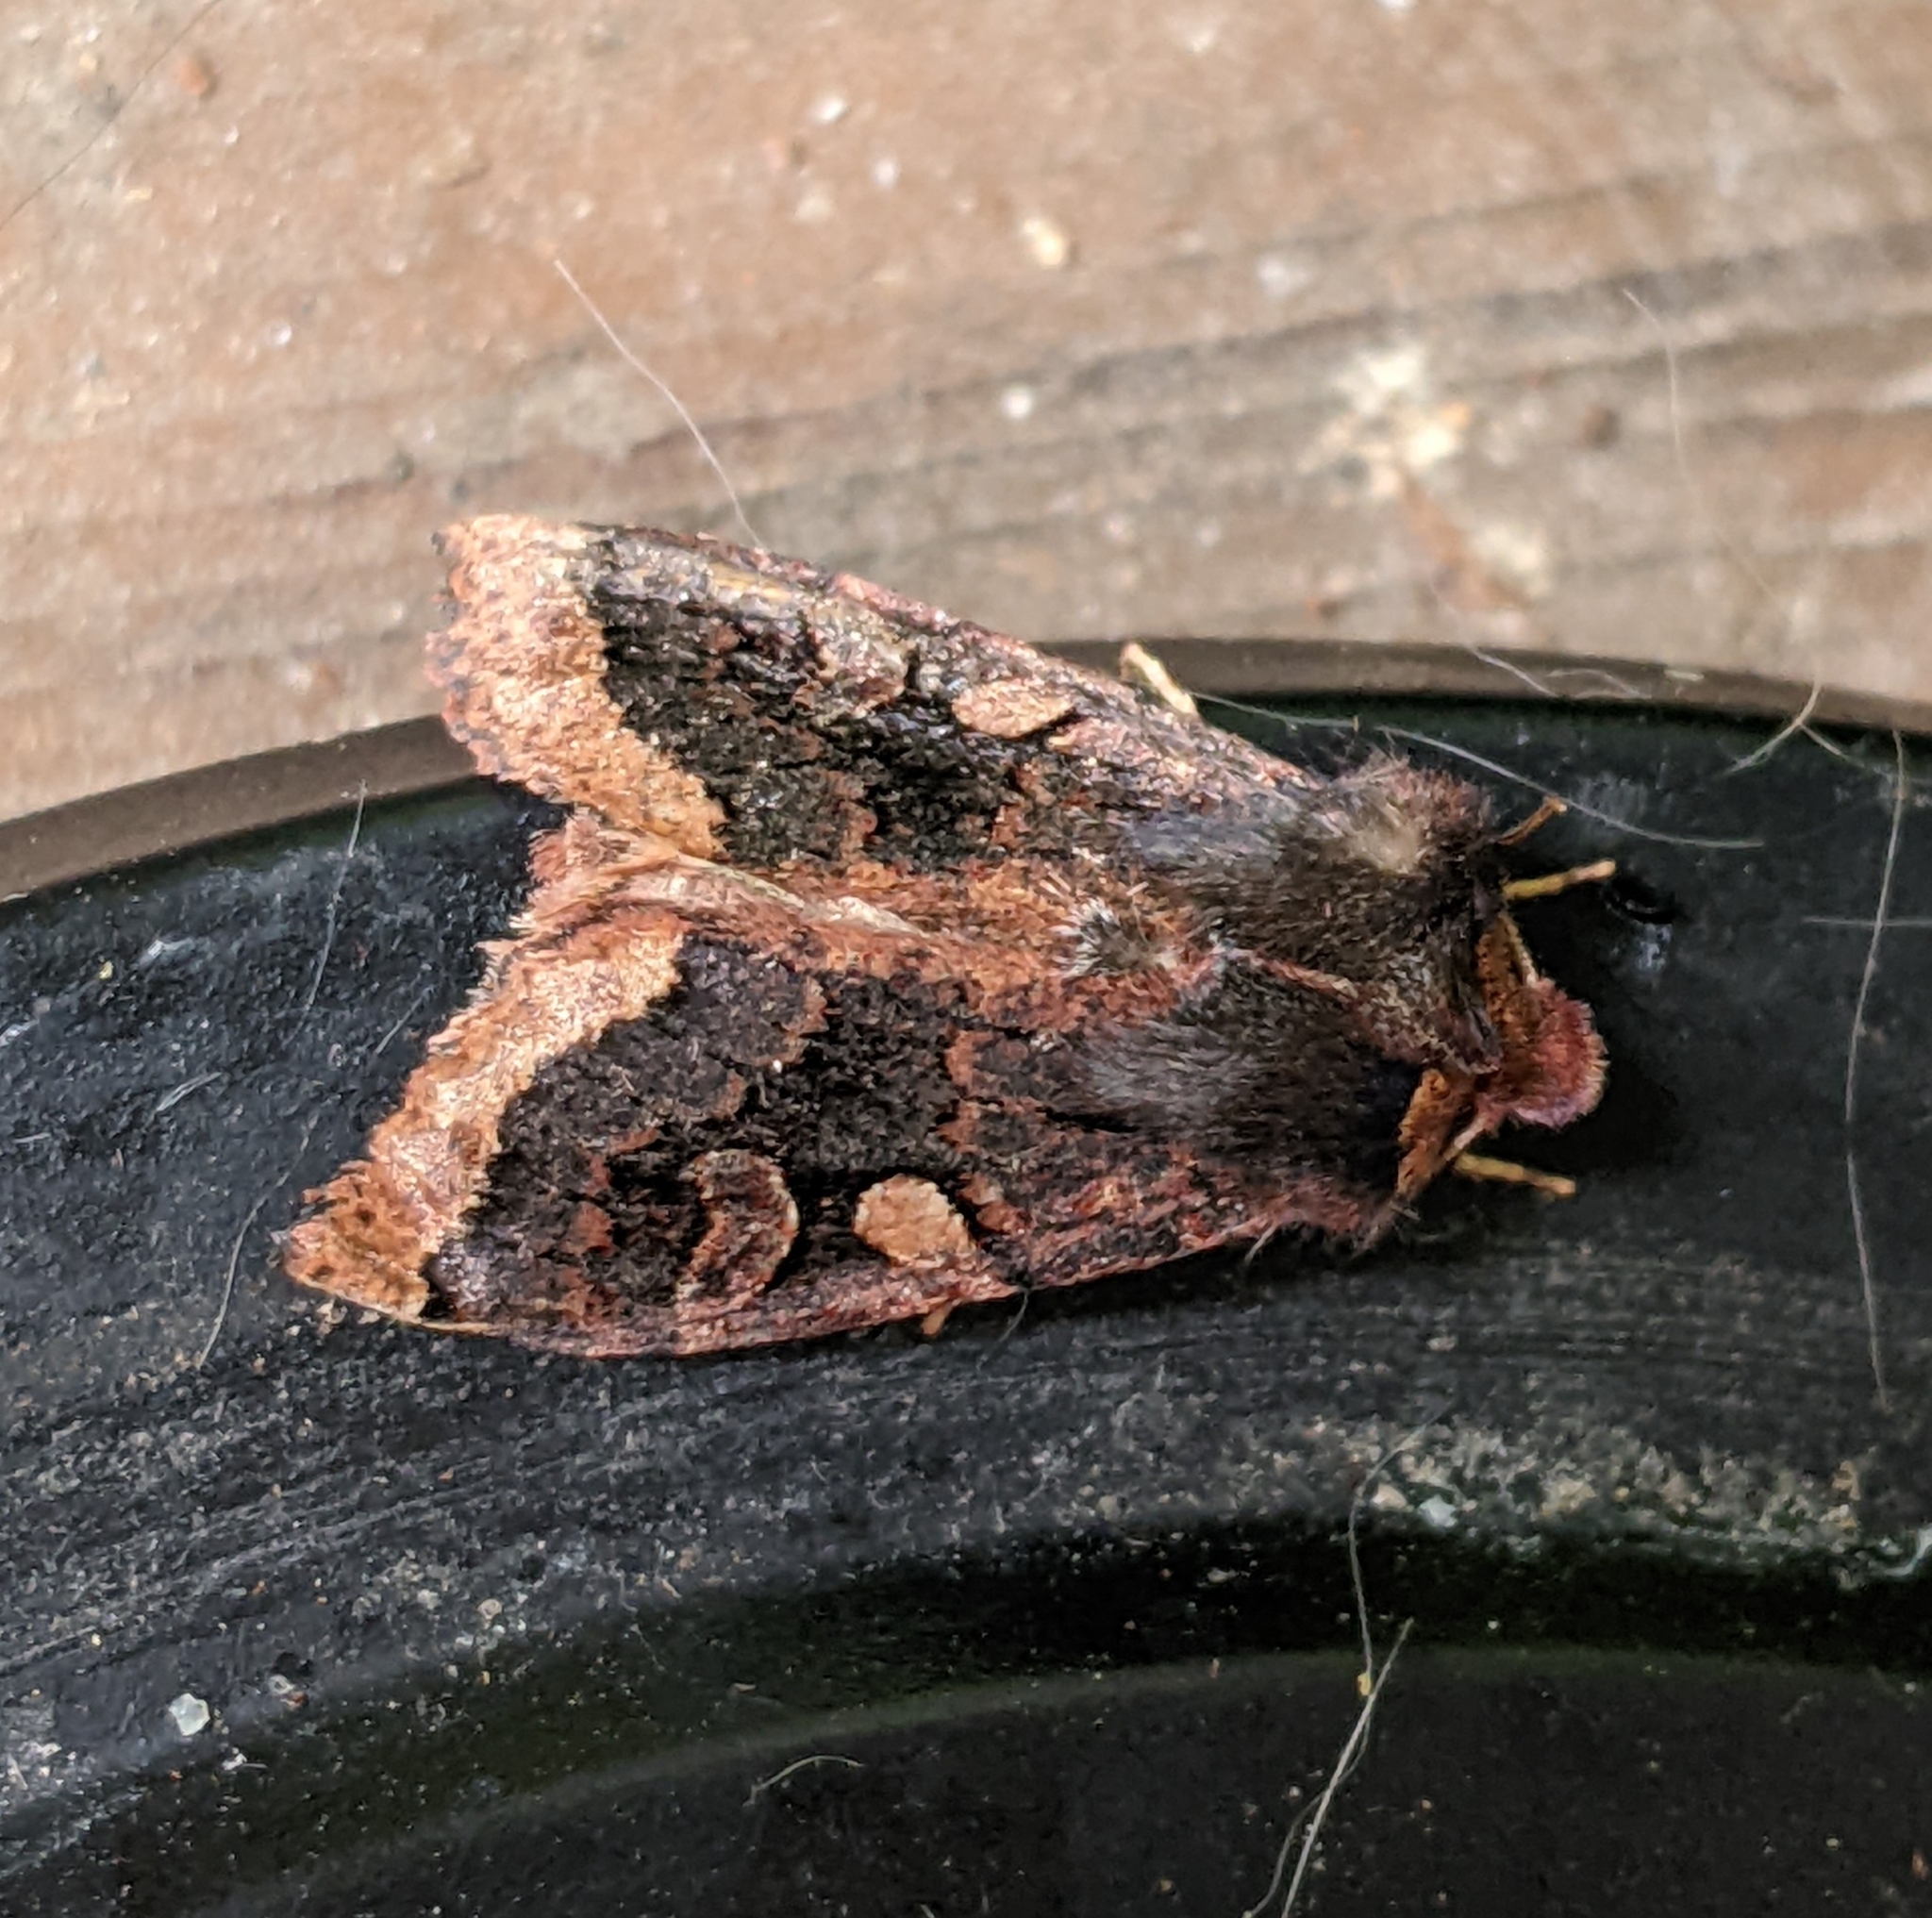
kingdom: Animalia
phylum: Arthropoda
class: Insecta
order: Lepidoptera
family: Noctuidae
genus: Orthosia
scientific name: Orthosia praeses
